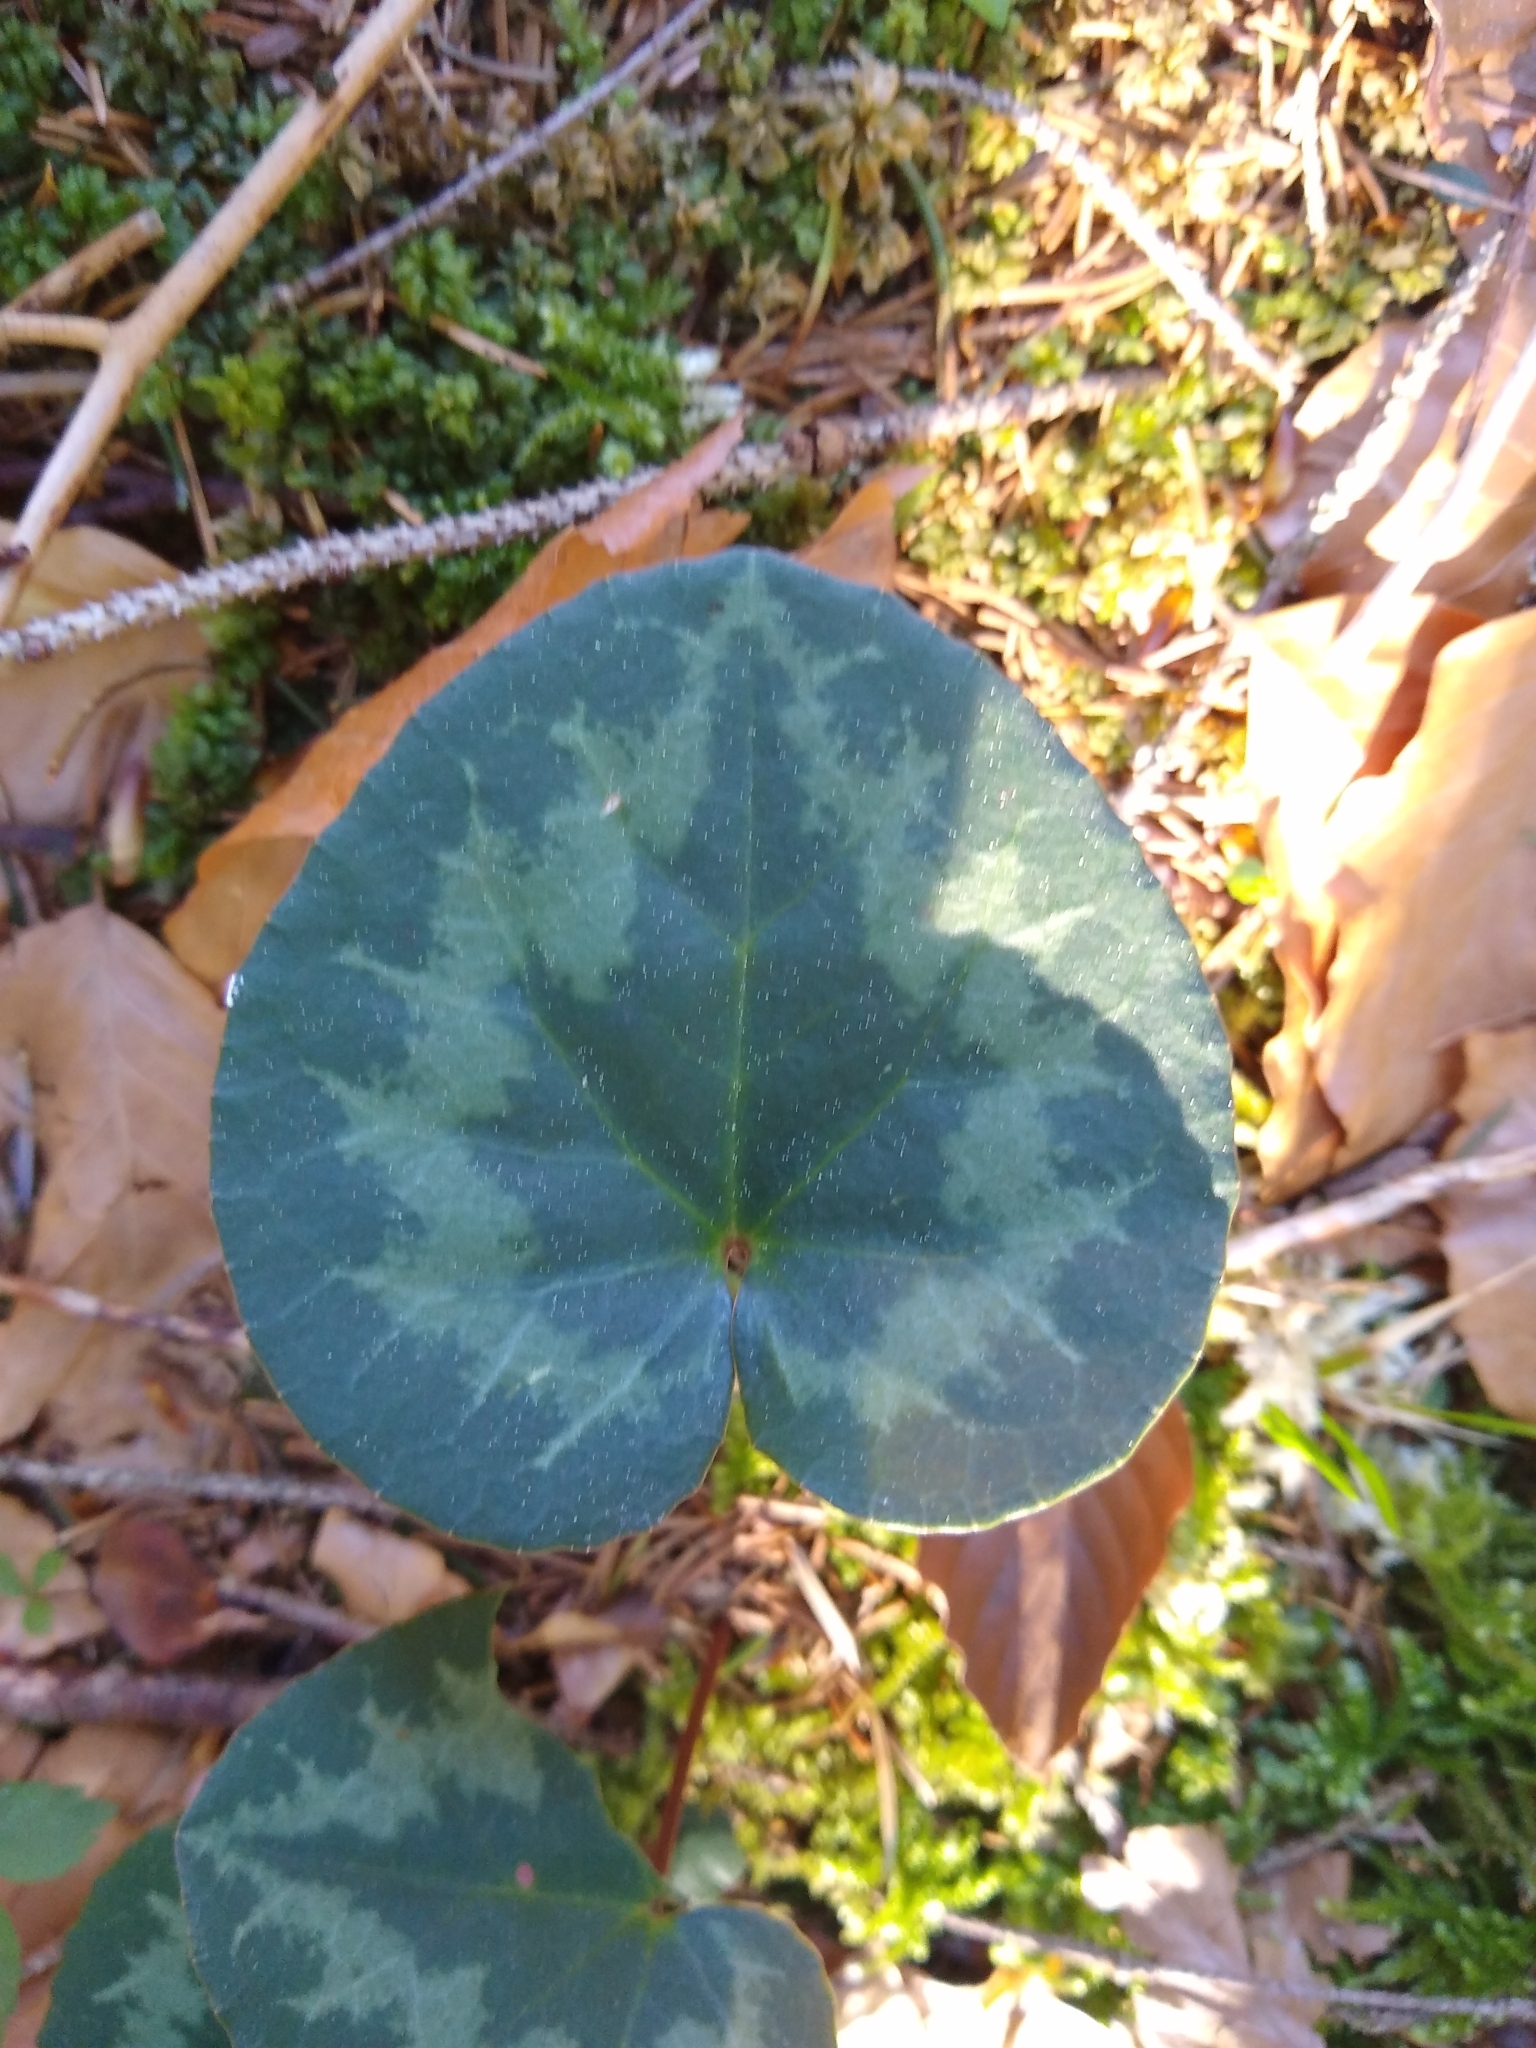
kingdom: Plantae
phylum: Tracheophyta
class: Magnoliopsida
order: Ericales
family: Primulaceae
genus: Cyclamen
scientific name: Cyclamen purpurascens
